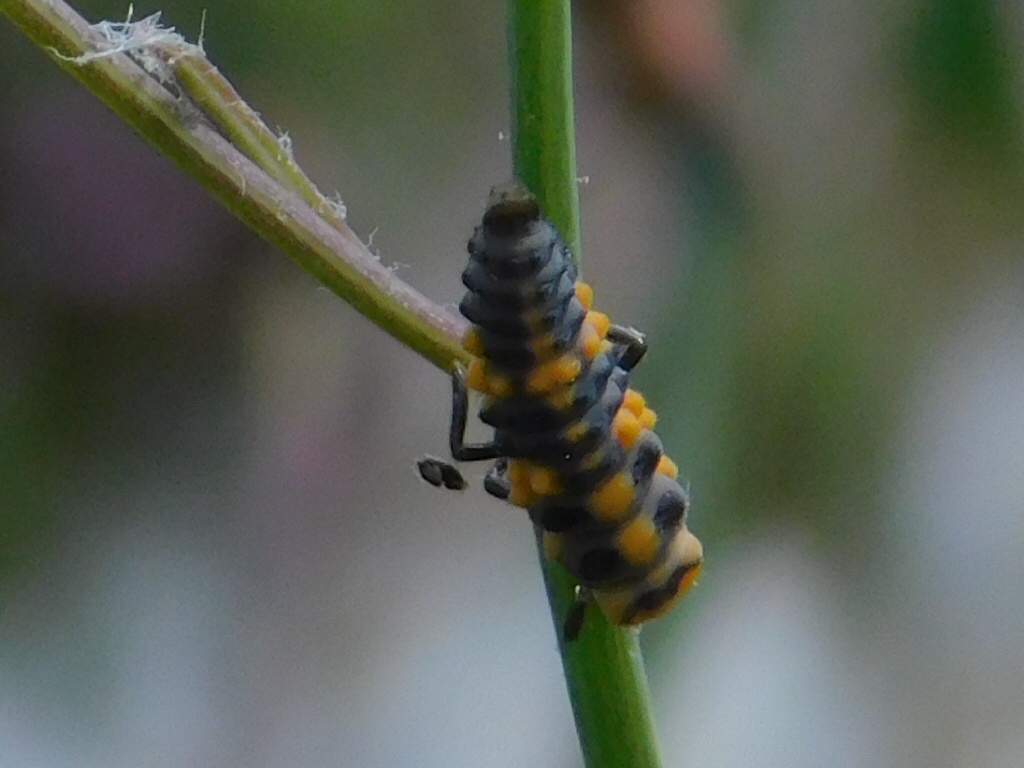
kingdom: Animalia
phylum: Arthropoda
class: Insecta
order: Coleoptera
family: Coccinellidae
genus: Cycloneda
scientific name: Cycloneda sanguinea
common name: Ladybird beetle
